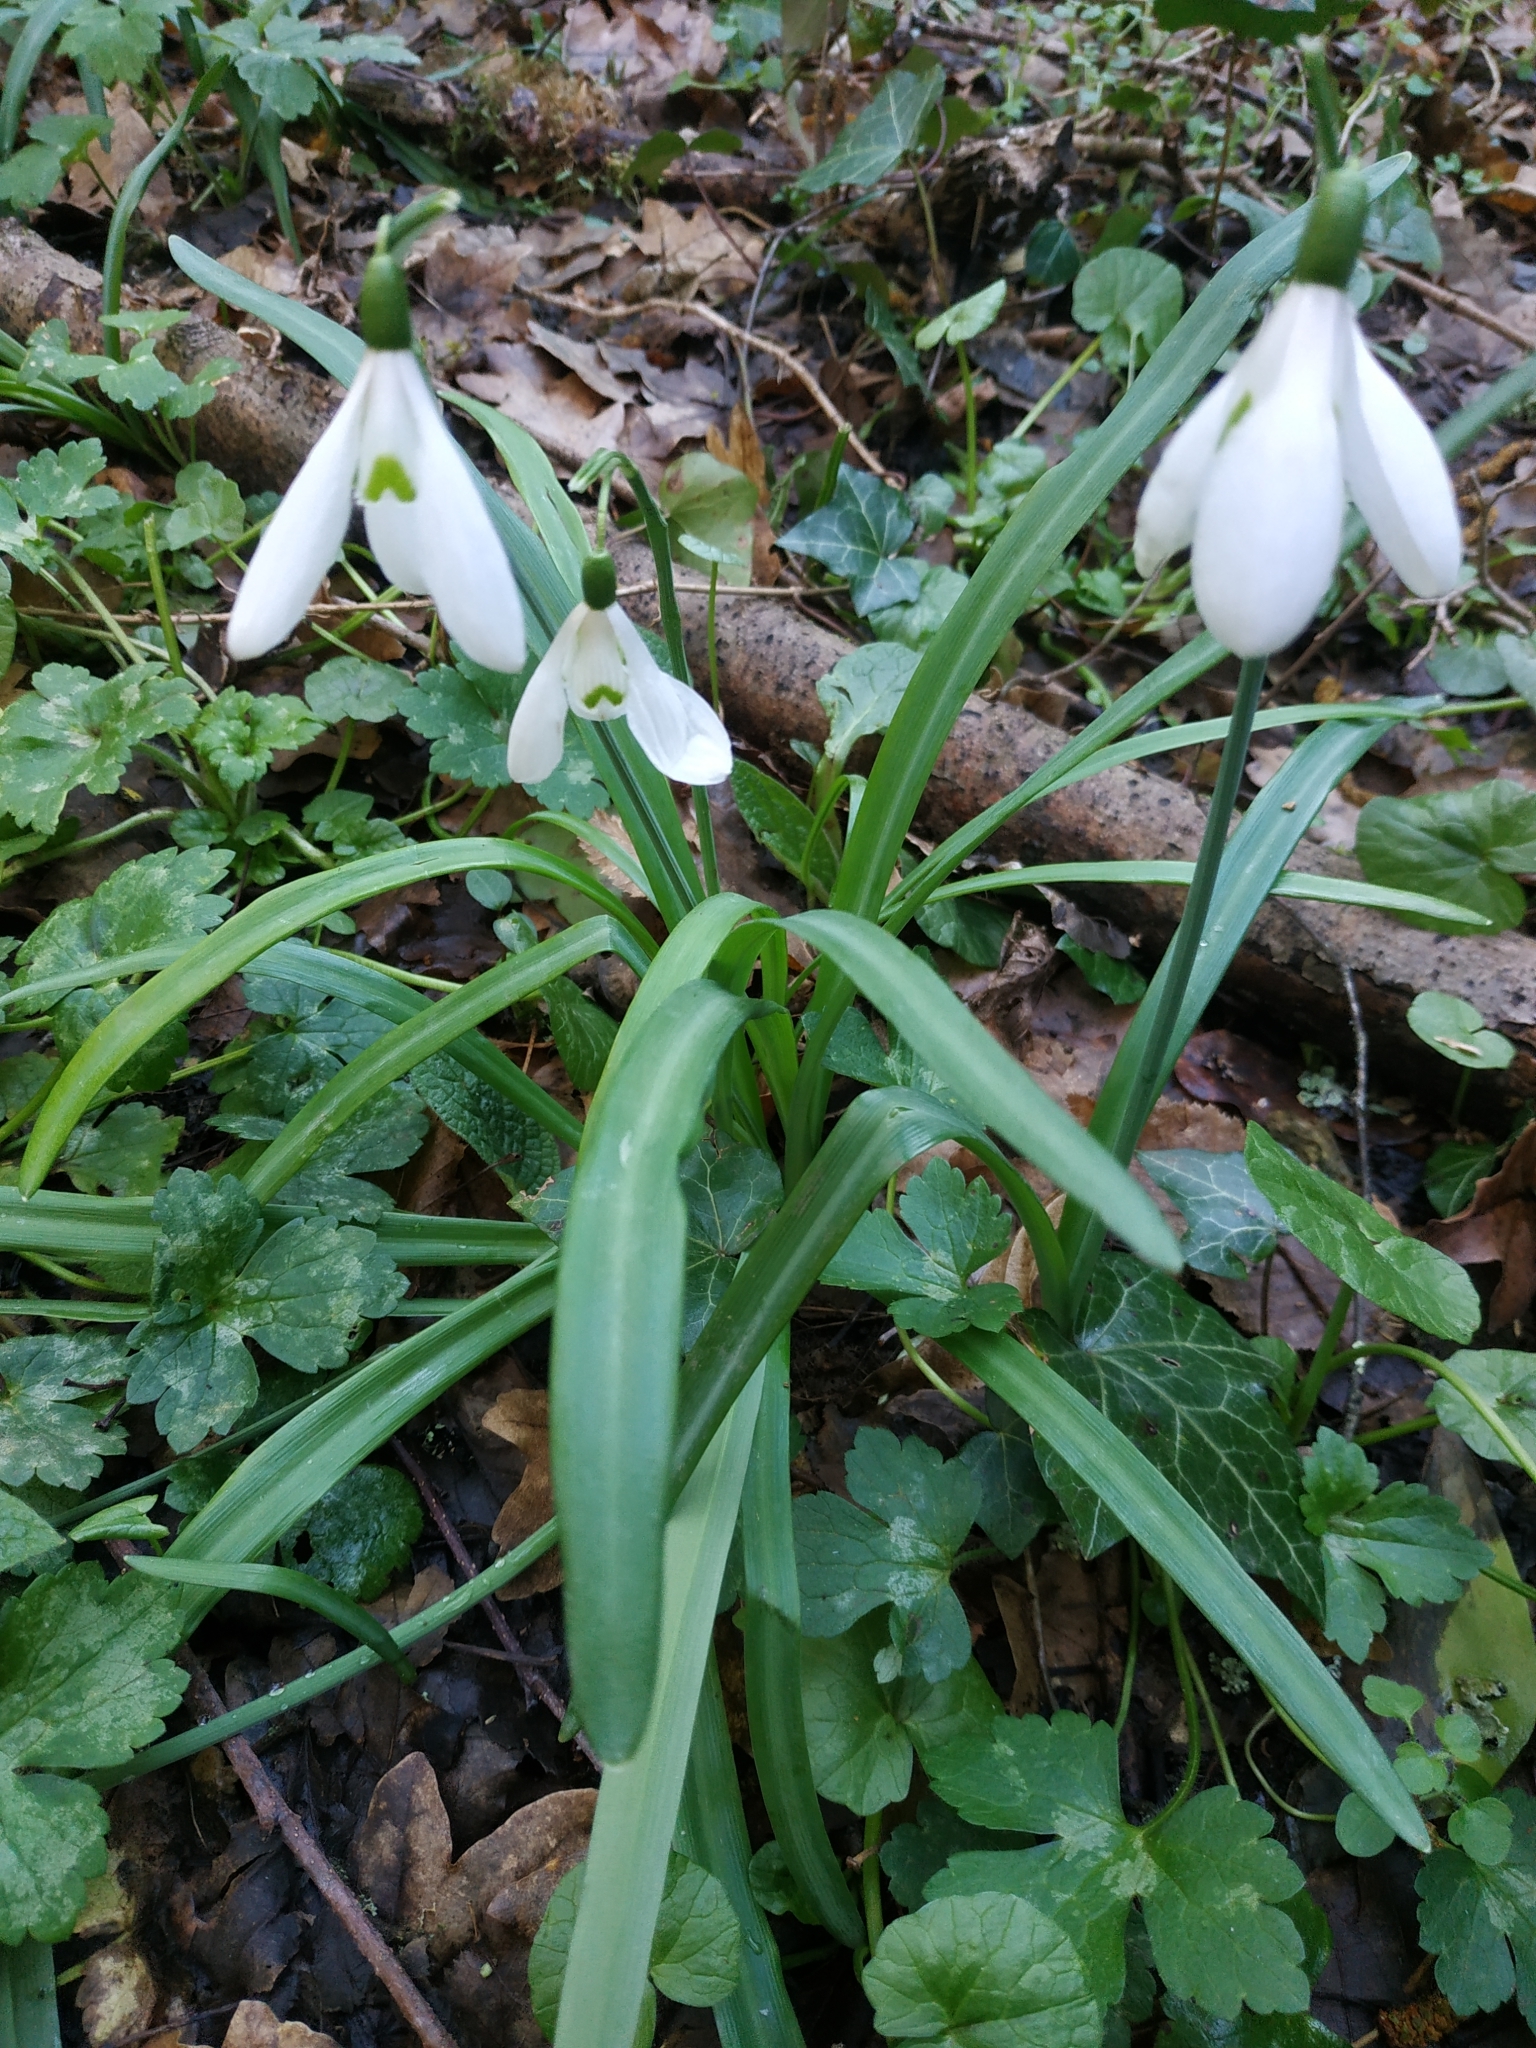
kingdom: Plantae
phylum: Tracheophyta
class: Liliopsida
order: Asparagales
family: Amaryllidaceae
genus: Galanthus
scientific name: Galanthus nivalis
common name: Snowdrop
